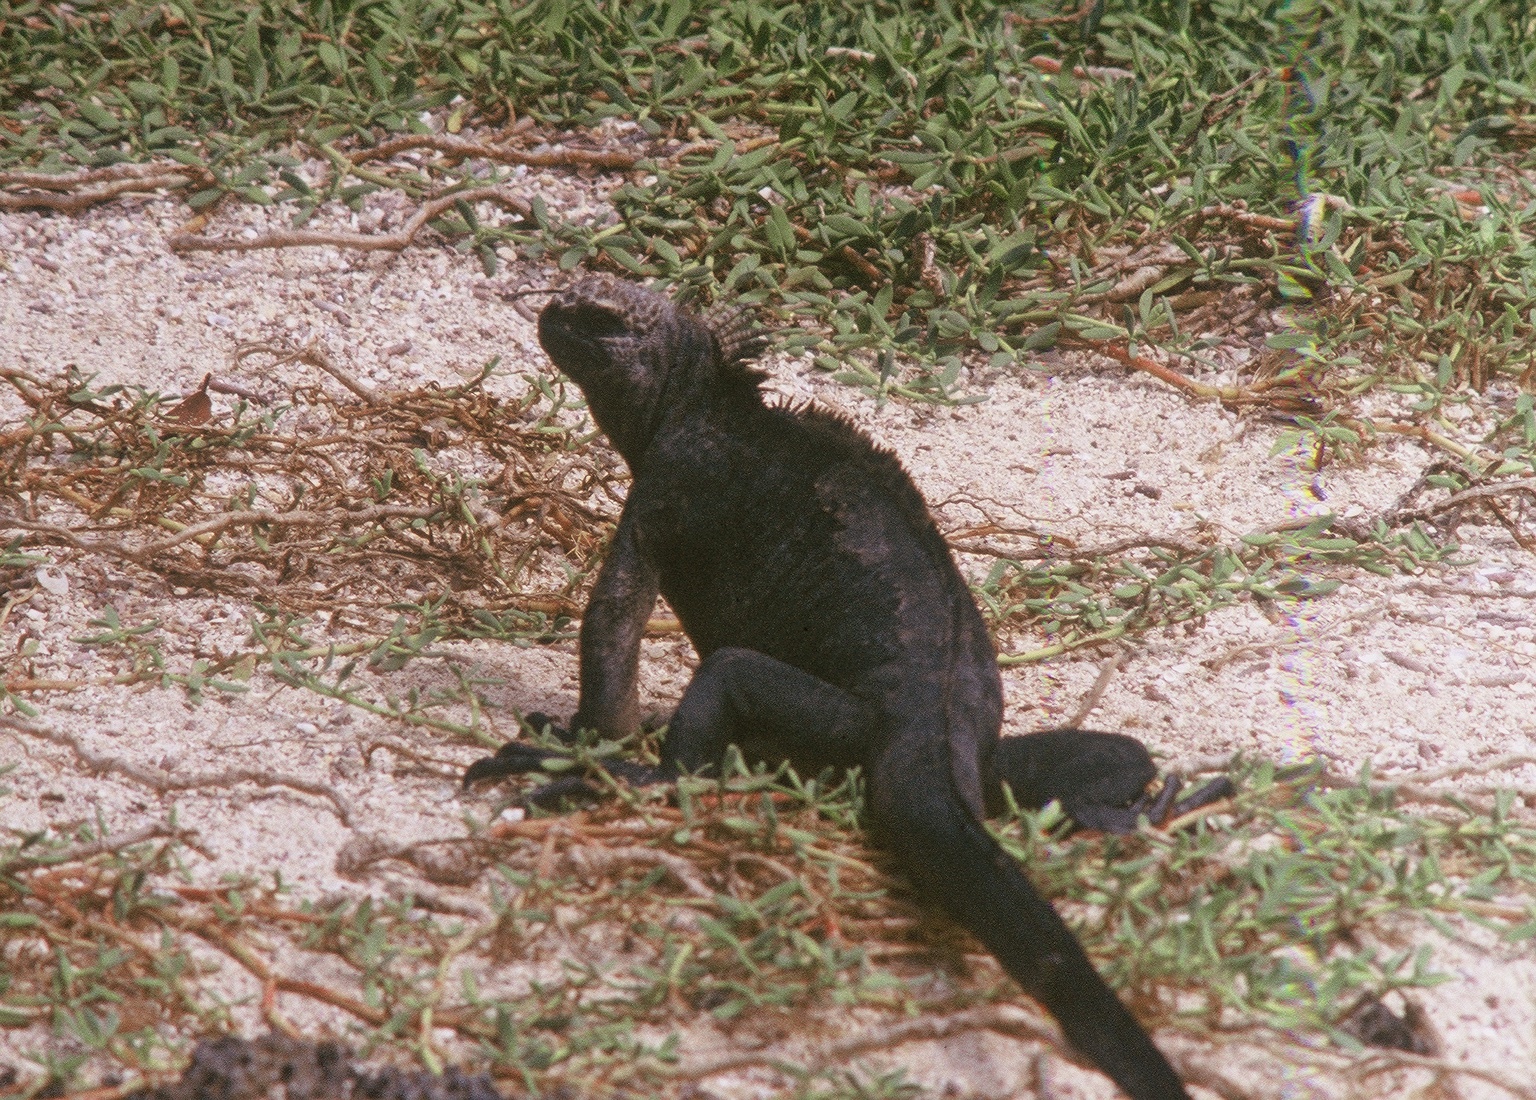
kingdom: Animalia
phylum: Chordata
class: Squamata
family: Iguanidae
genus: Amblyrhynchus
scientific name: Amblyrhynchus cristatus
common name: Marine iguana
